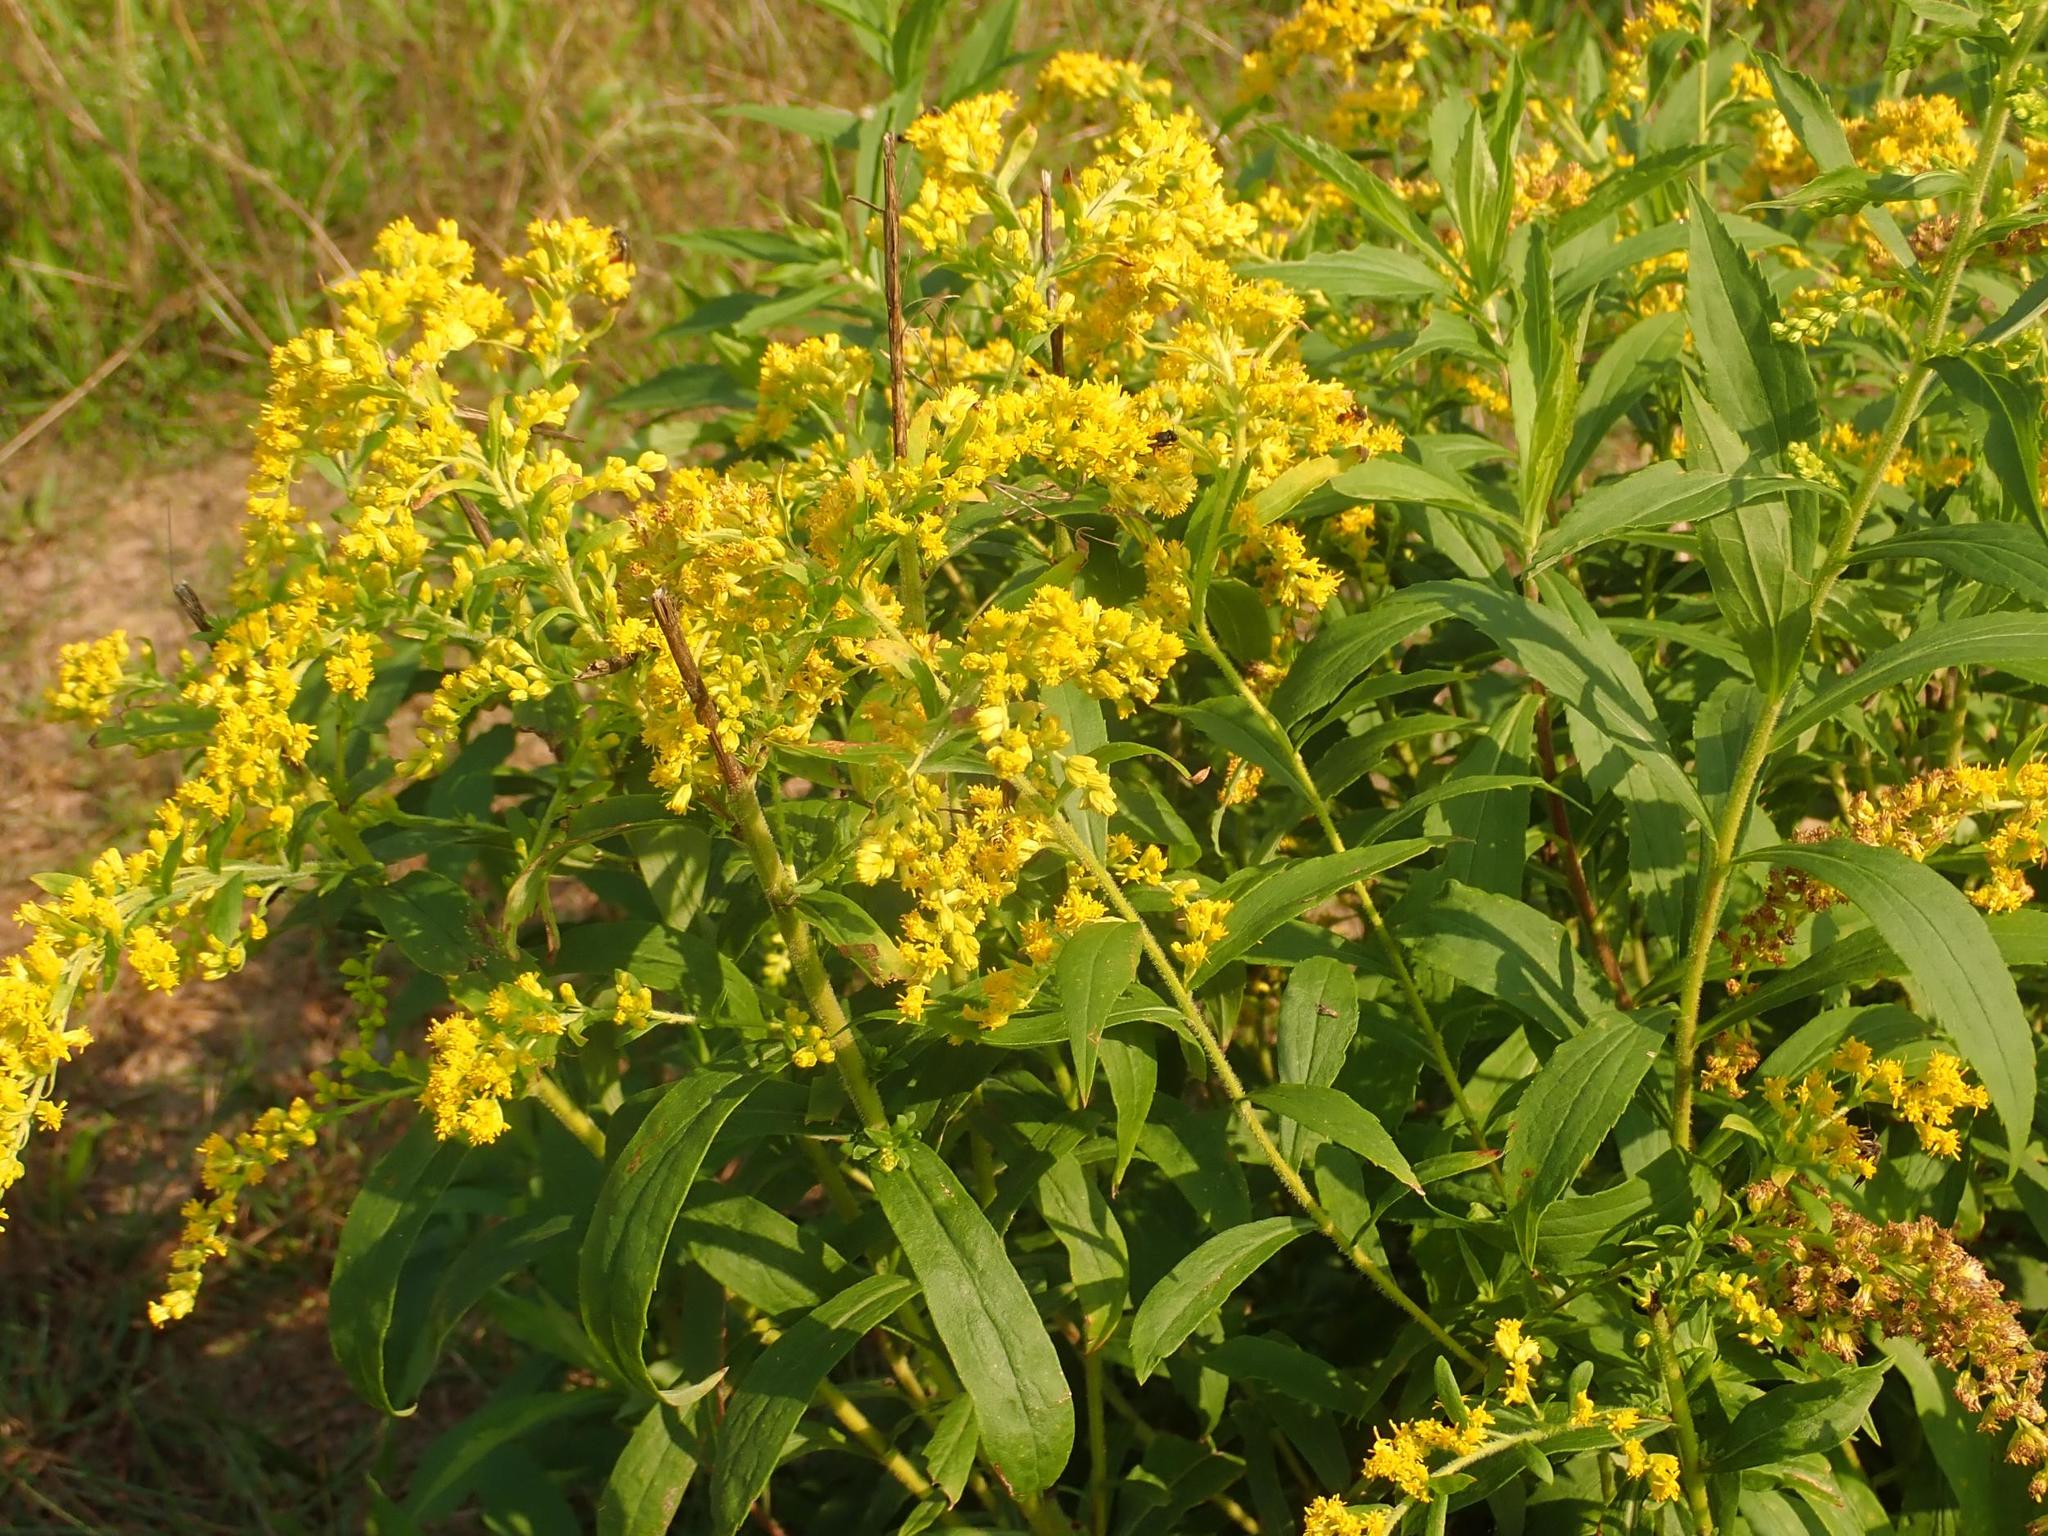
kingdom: Plantae
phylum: Tracheophyta
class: Magnoliopsida
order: Asterales
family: Asteraceae
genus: Solidago
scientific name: Solidago canadensis
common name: Canada goldenrod
